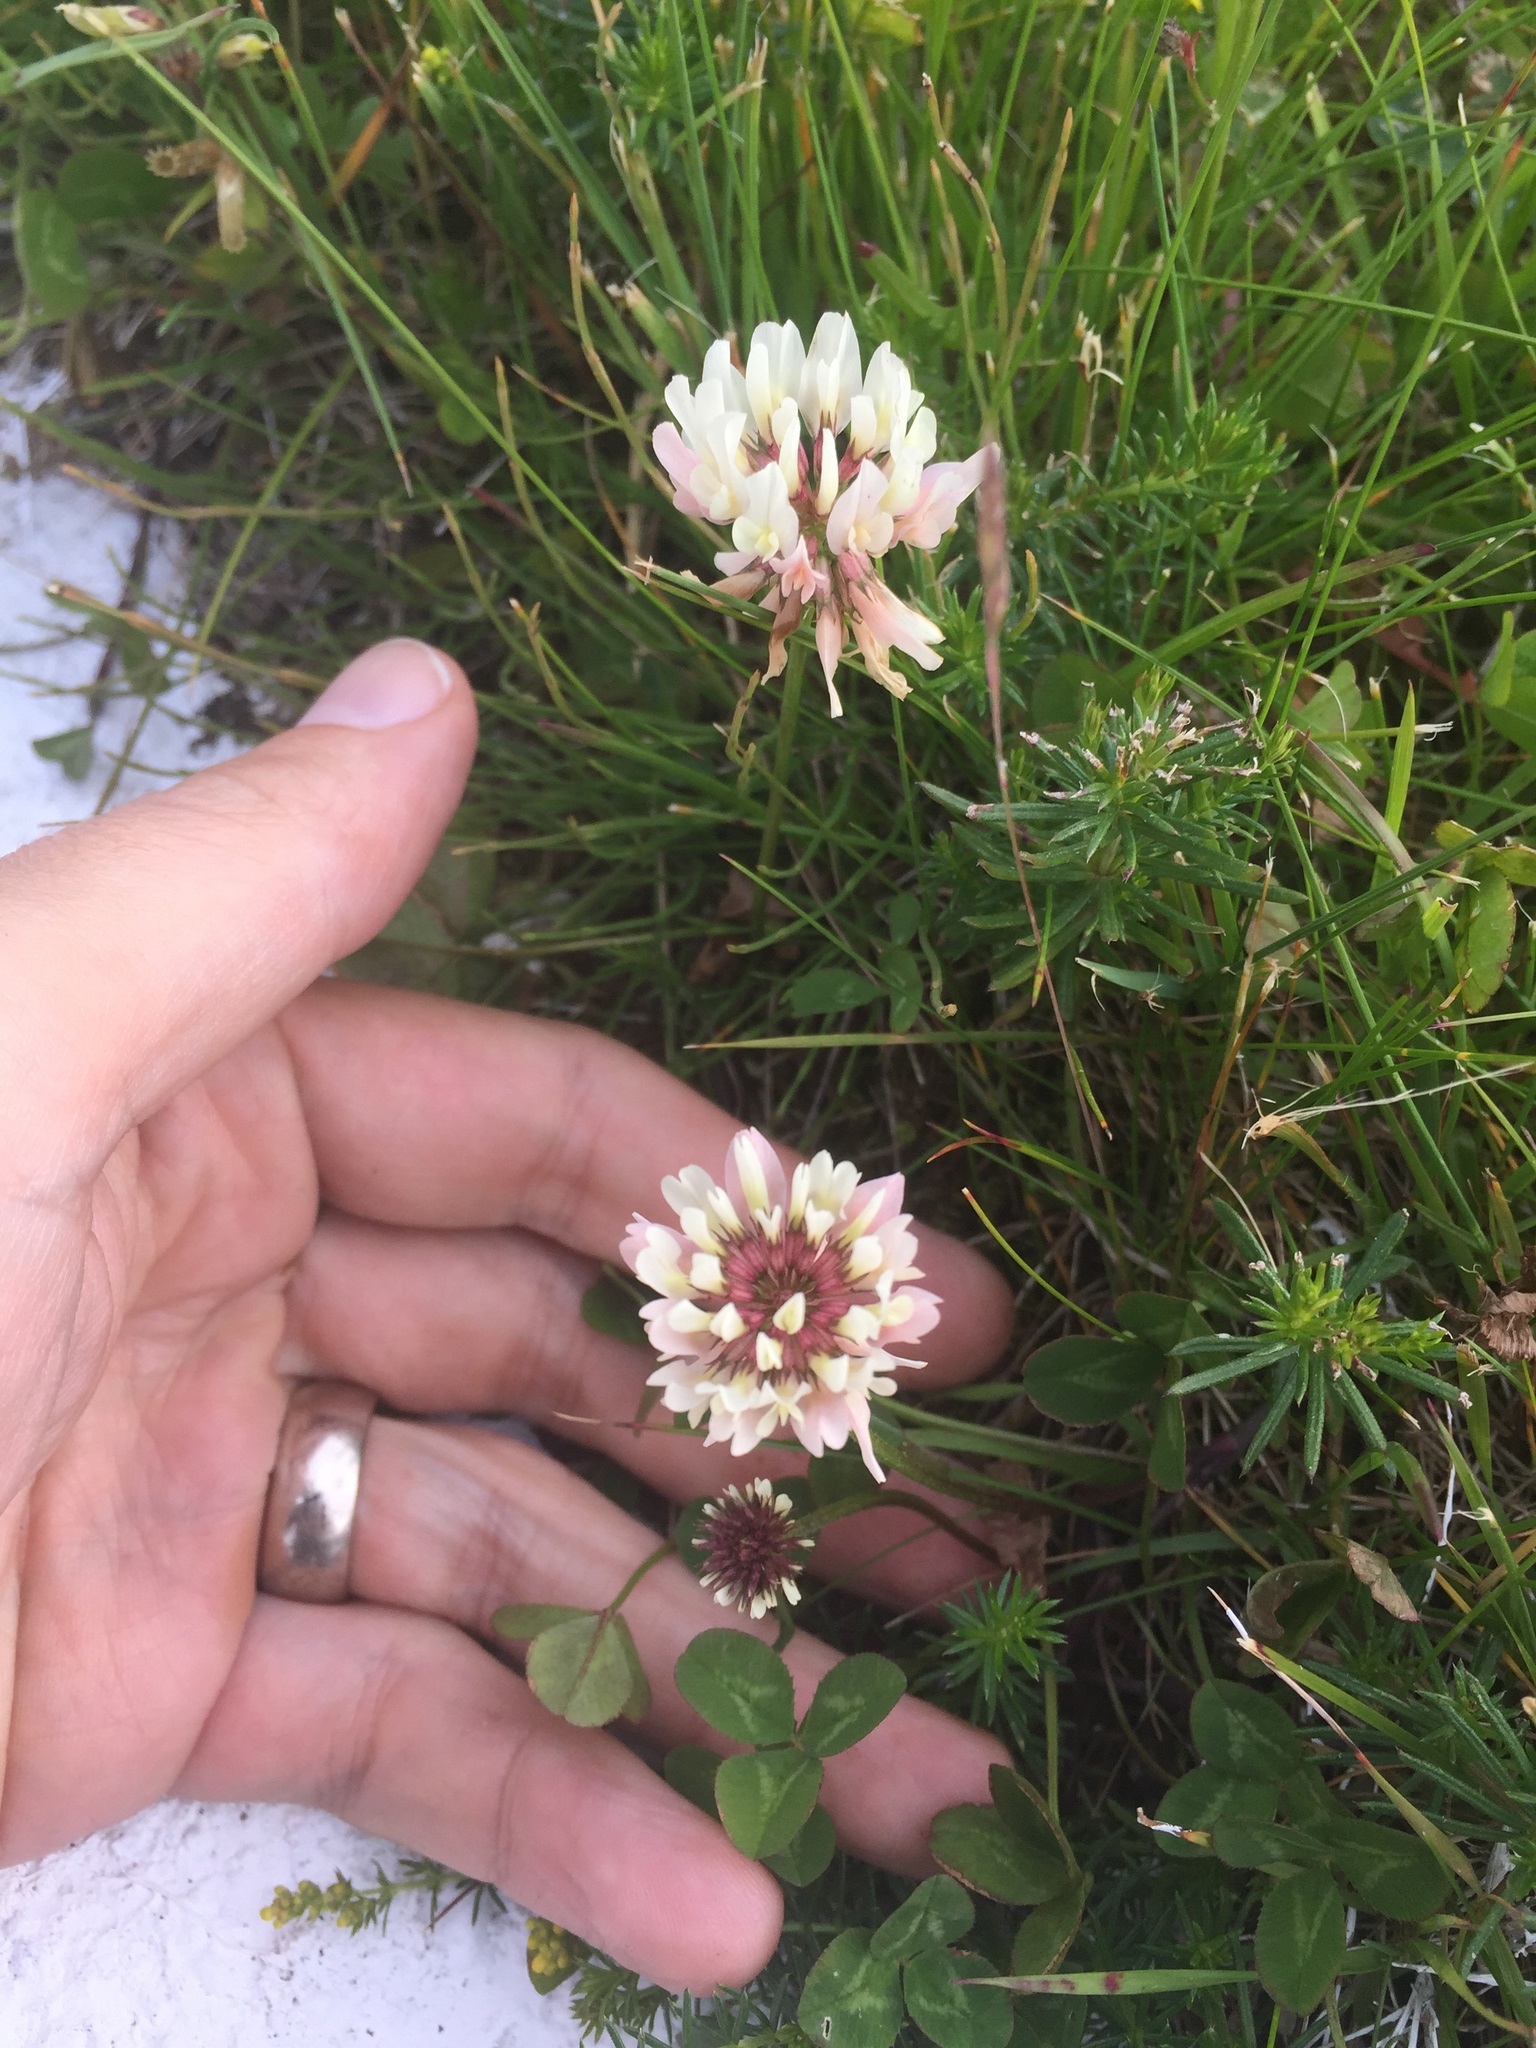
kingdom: Plantae
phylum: Tracheophyta
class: Magnoliopsida
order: Fabales
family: Fabaceae
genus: Trifolium
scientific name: Trifolium repens
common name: White clover
